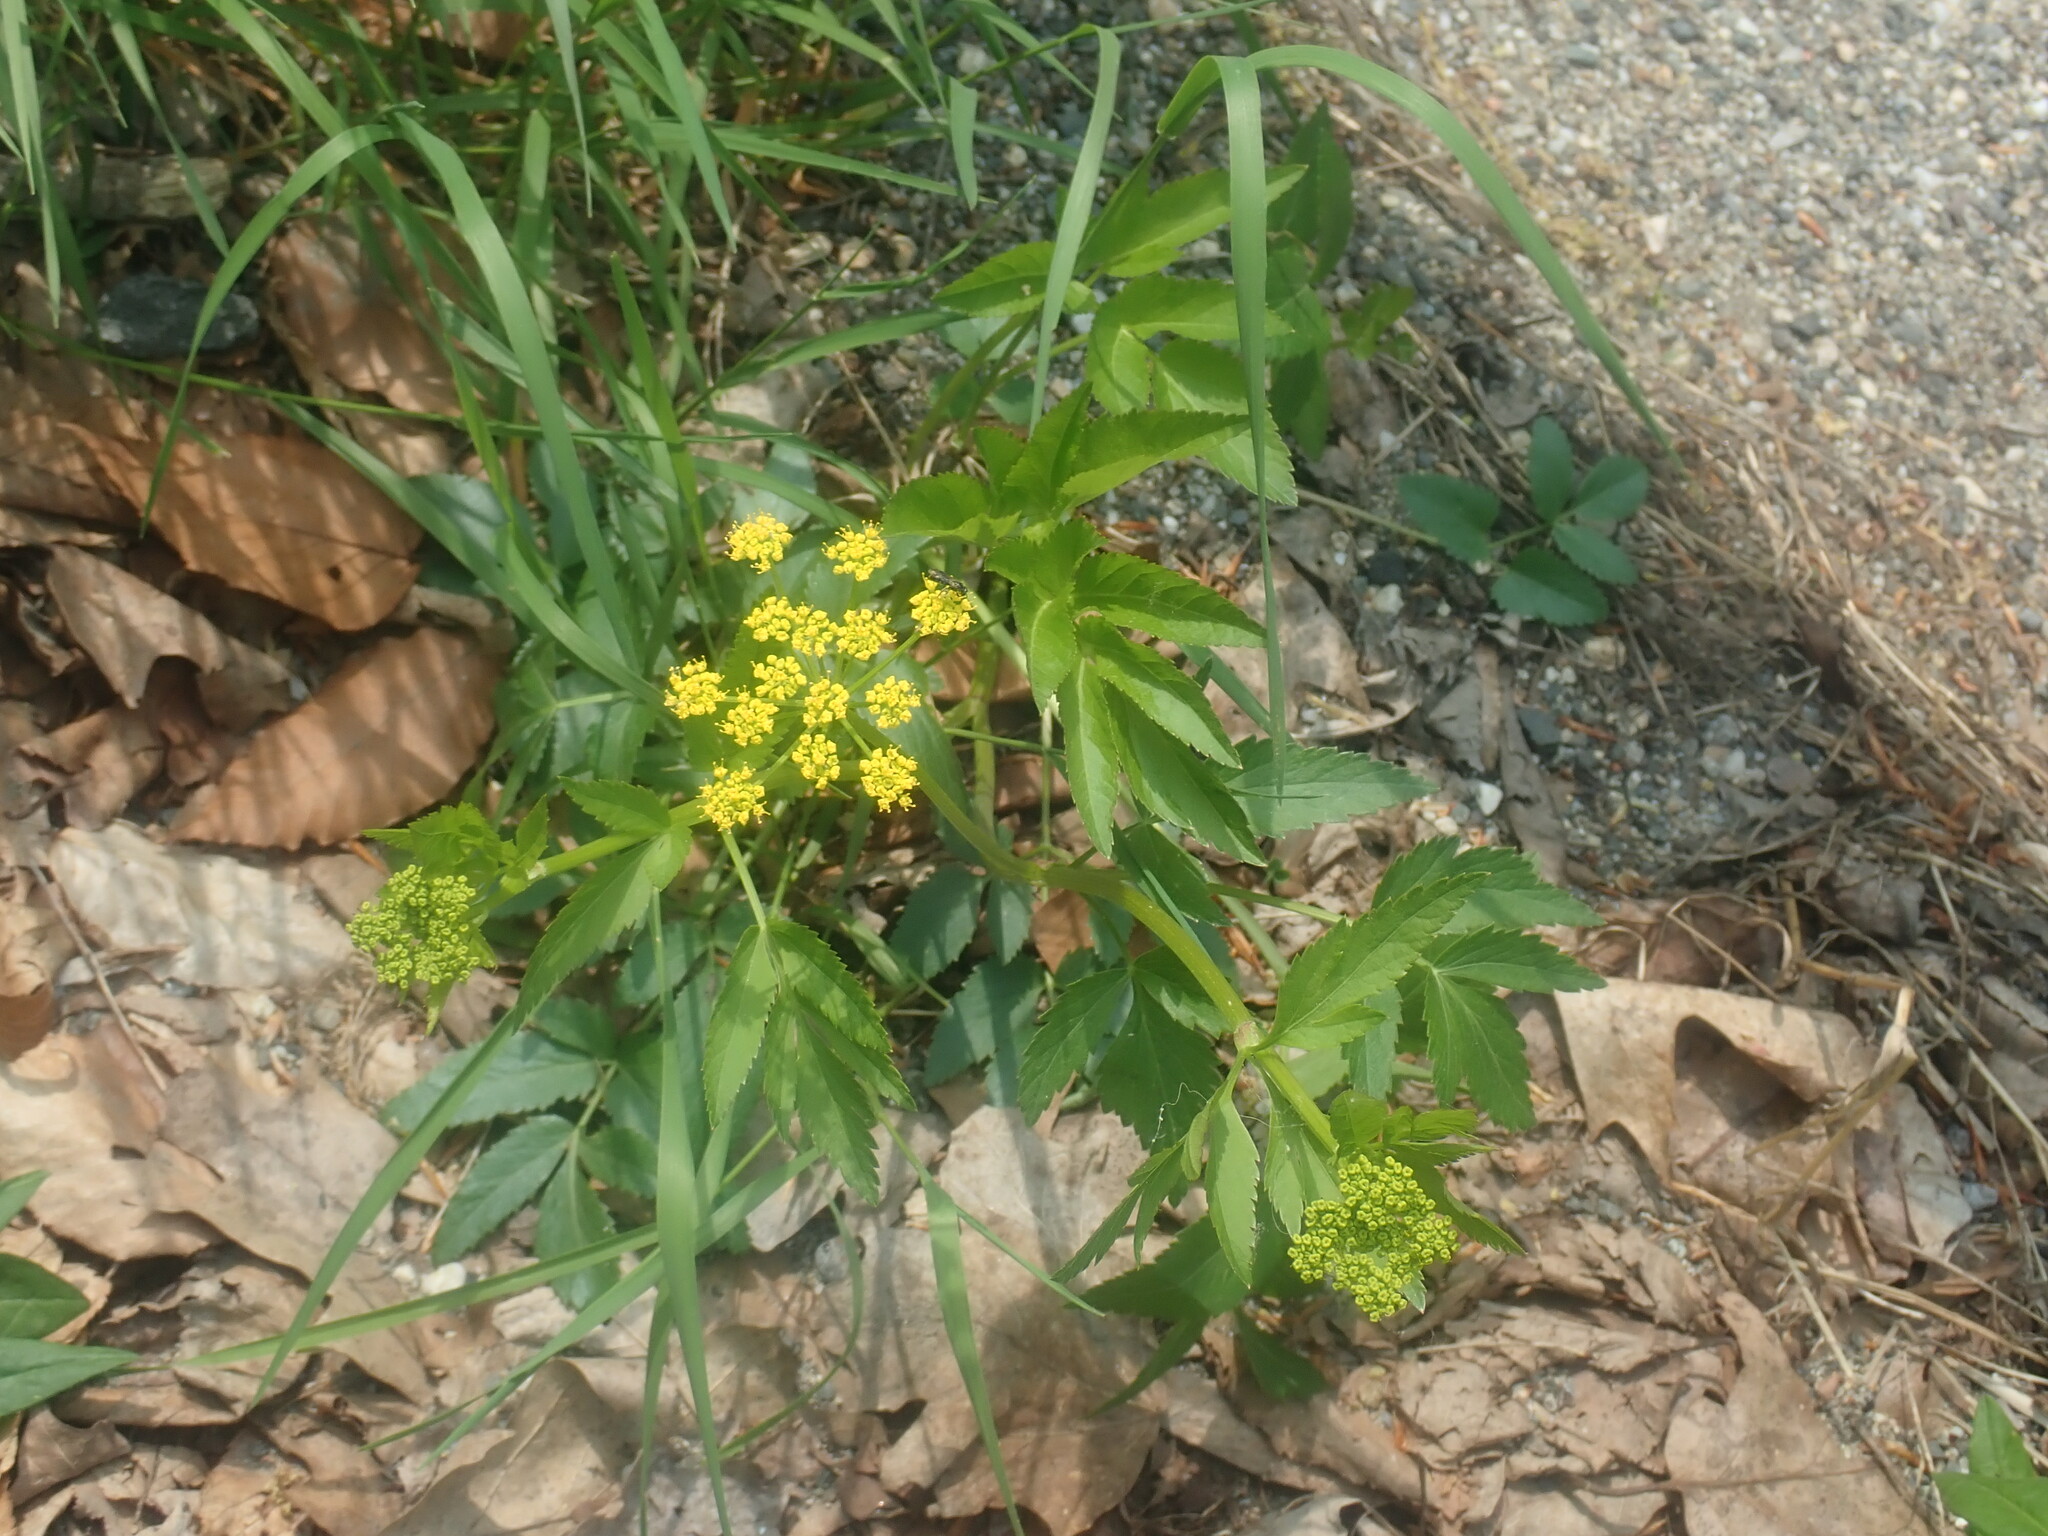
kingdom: Plantae
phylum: Tracheophyta
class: Magnoliopsida
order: Apiales
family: Apiaceae
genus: Zizia
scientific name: Zizia aurea
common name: Golden alexanders
